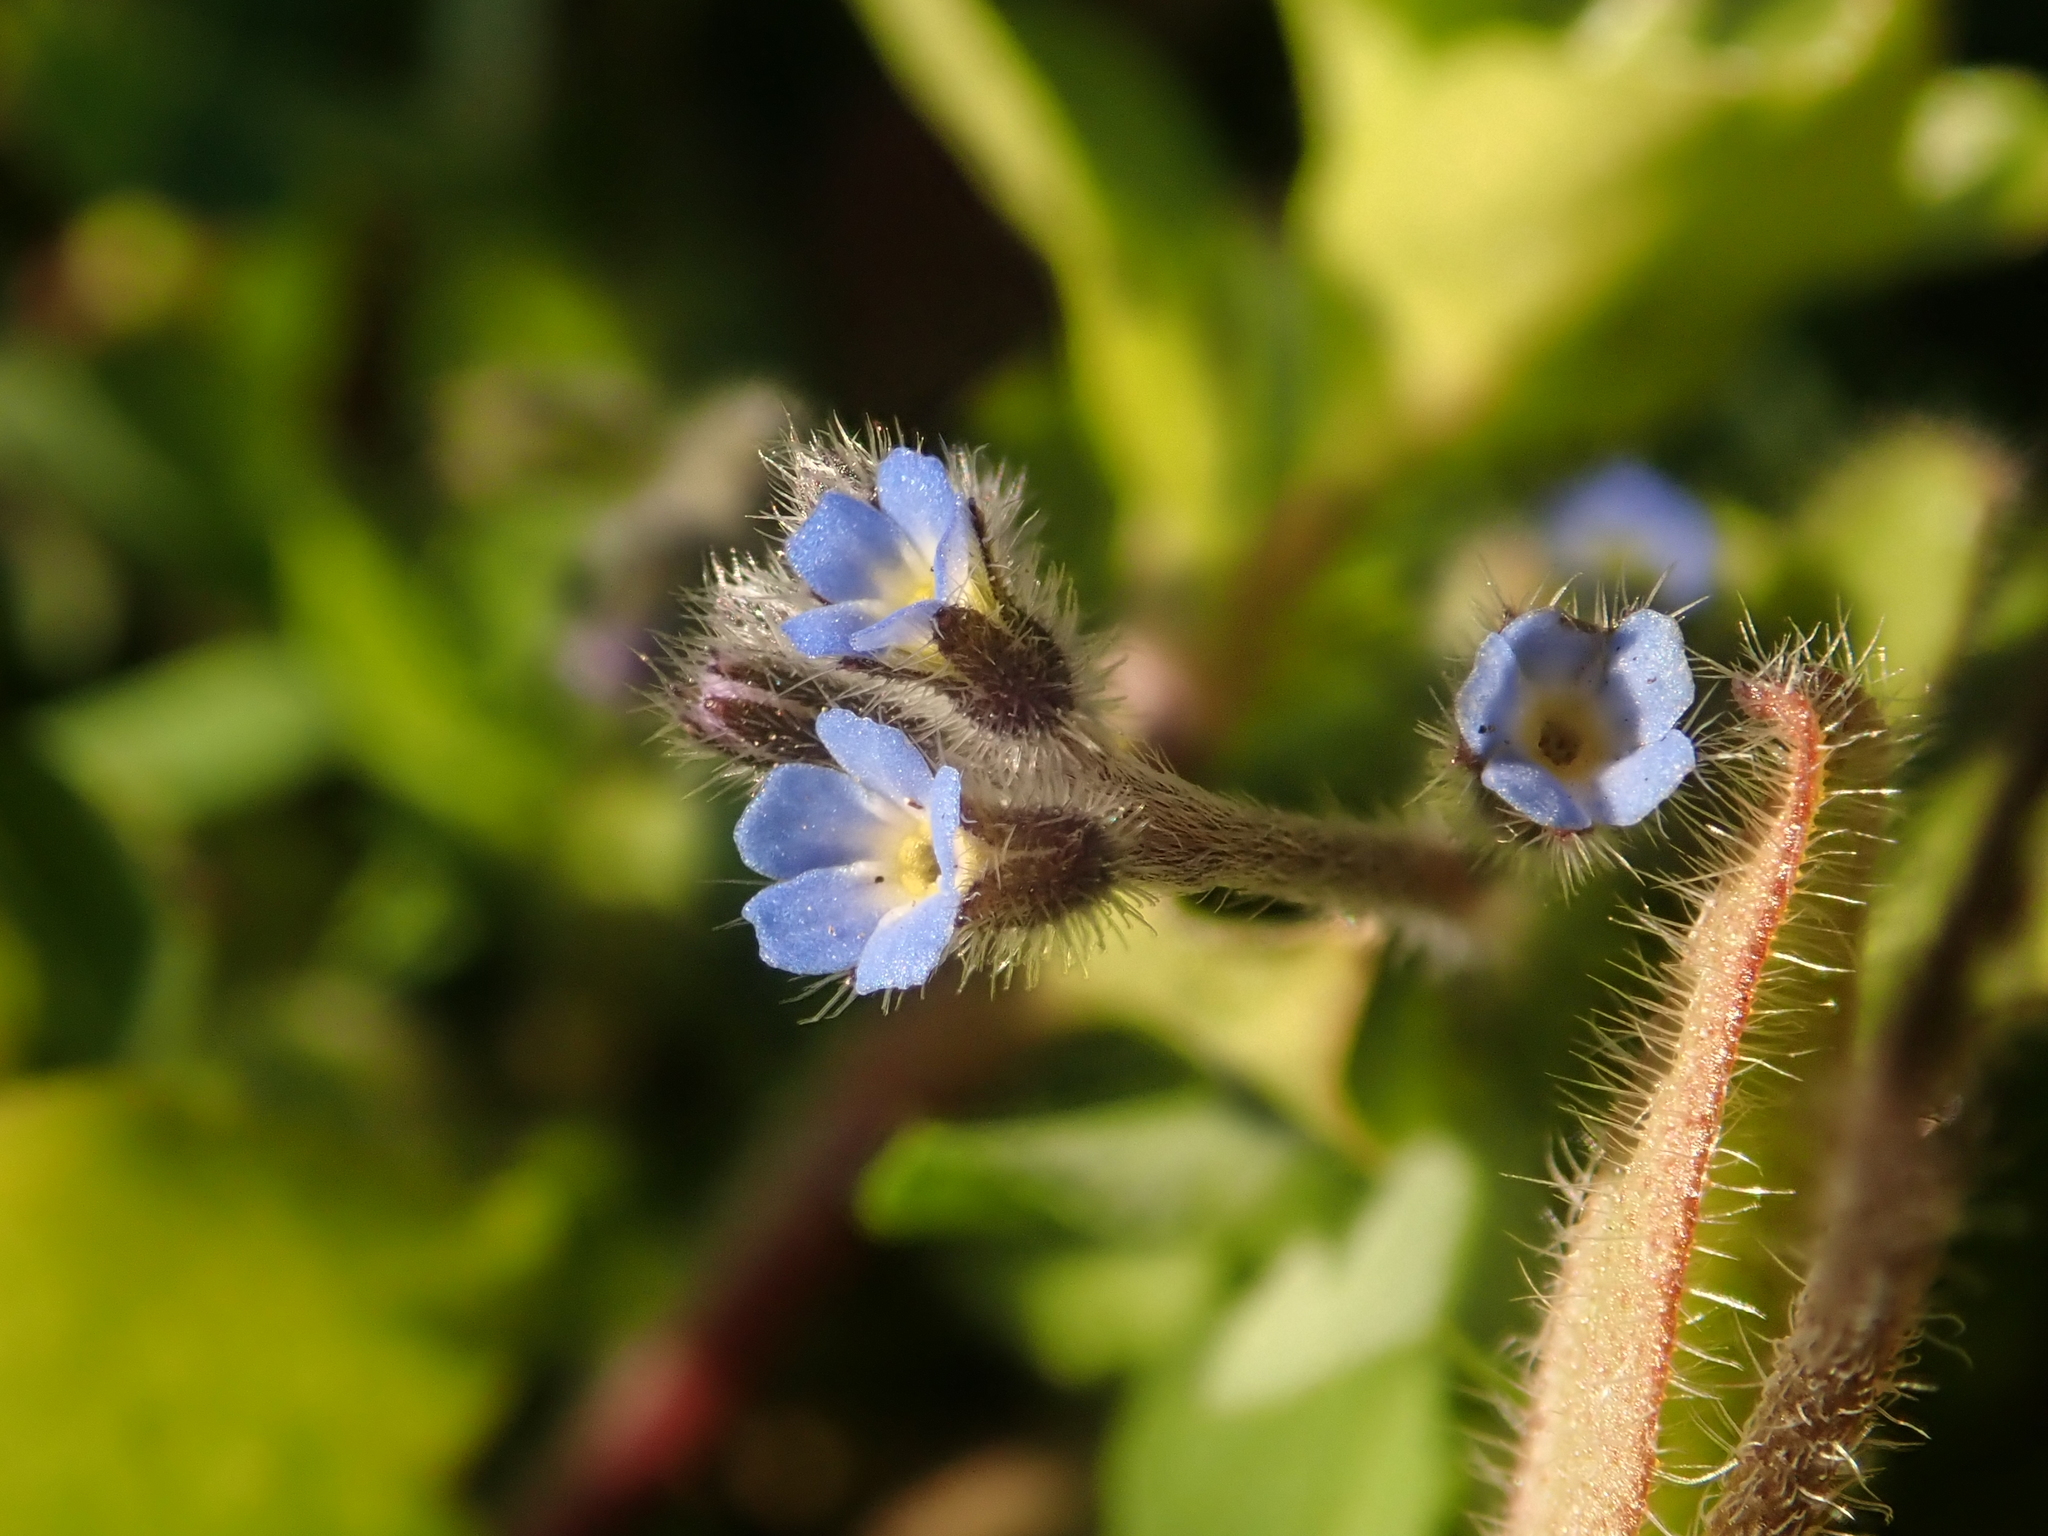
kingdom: Plantae
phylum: Tracheophyta
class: Magnoliopsida
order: Boraginales
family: Boraginaceae
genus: Myosotis
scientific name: Myosotis ramosissima
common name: Early forget-me-not
